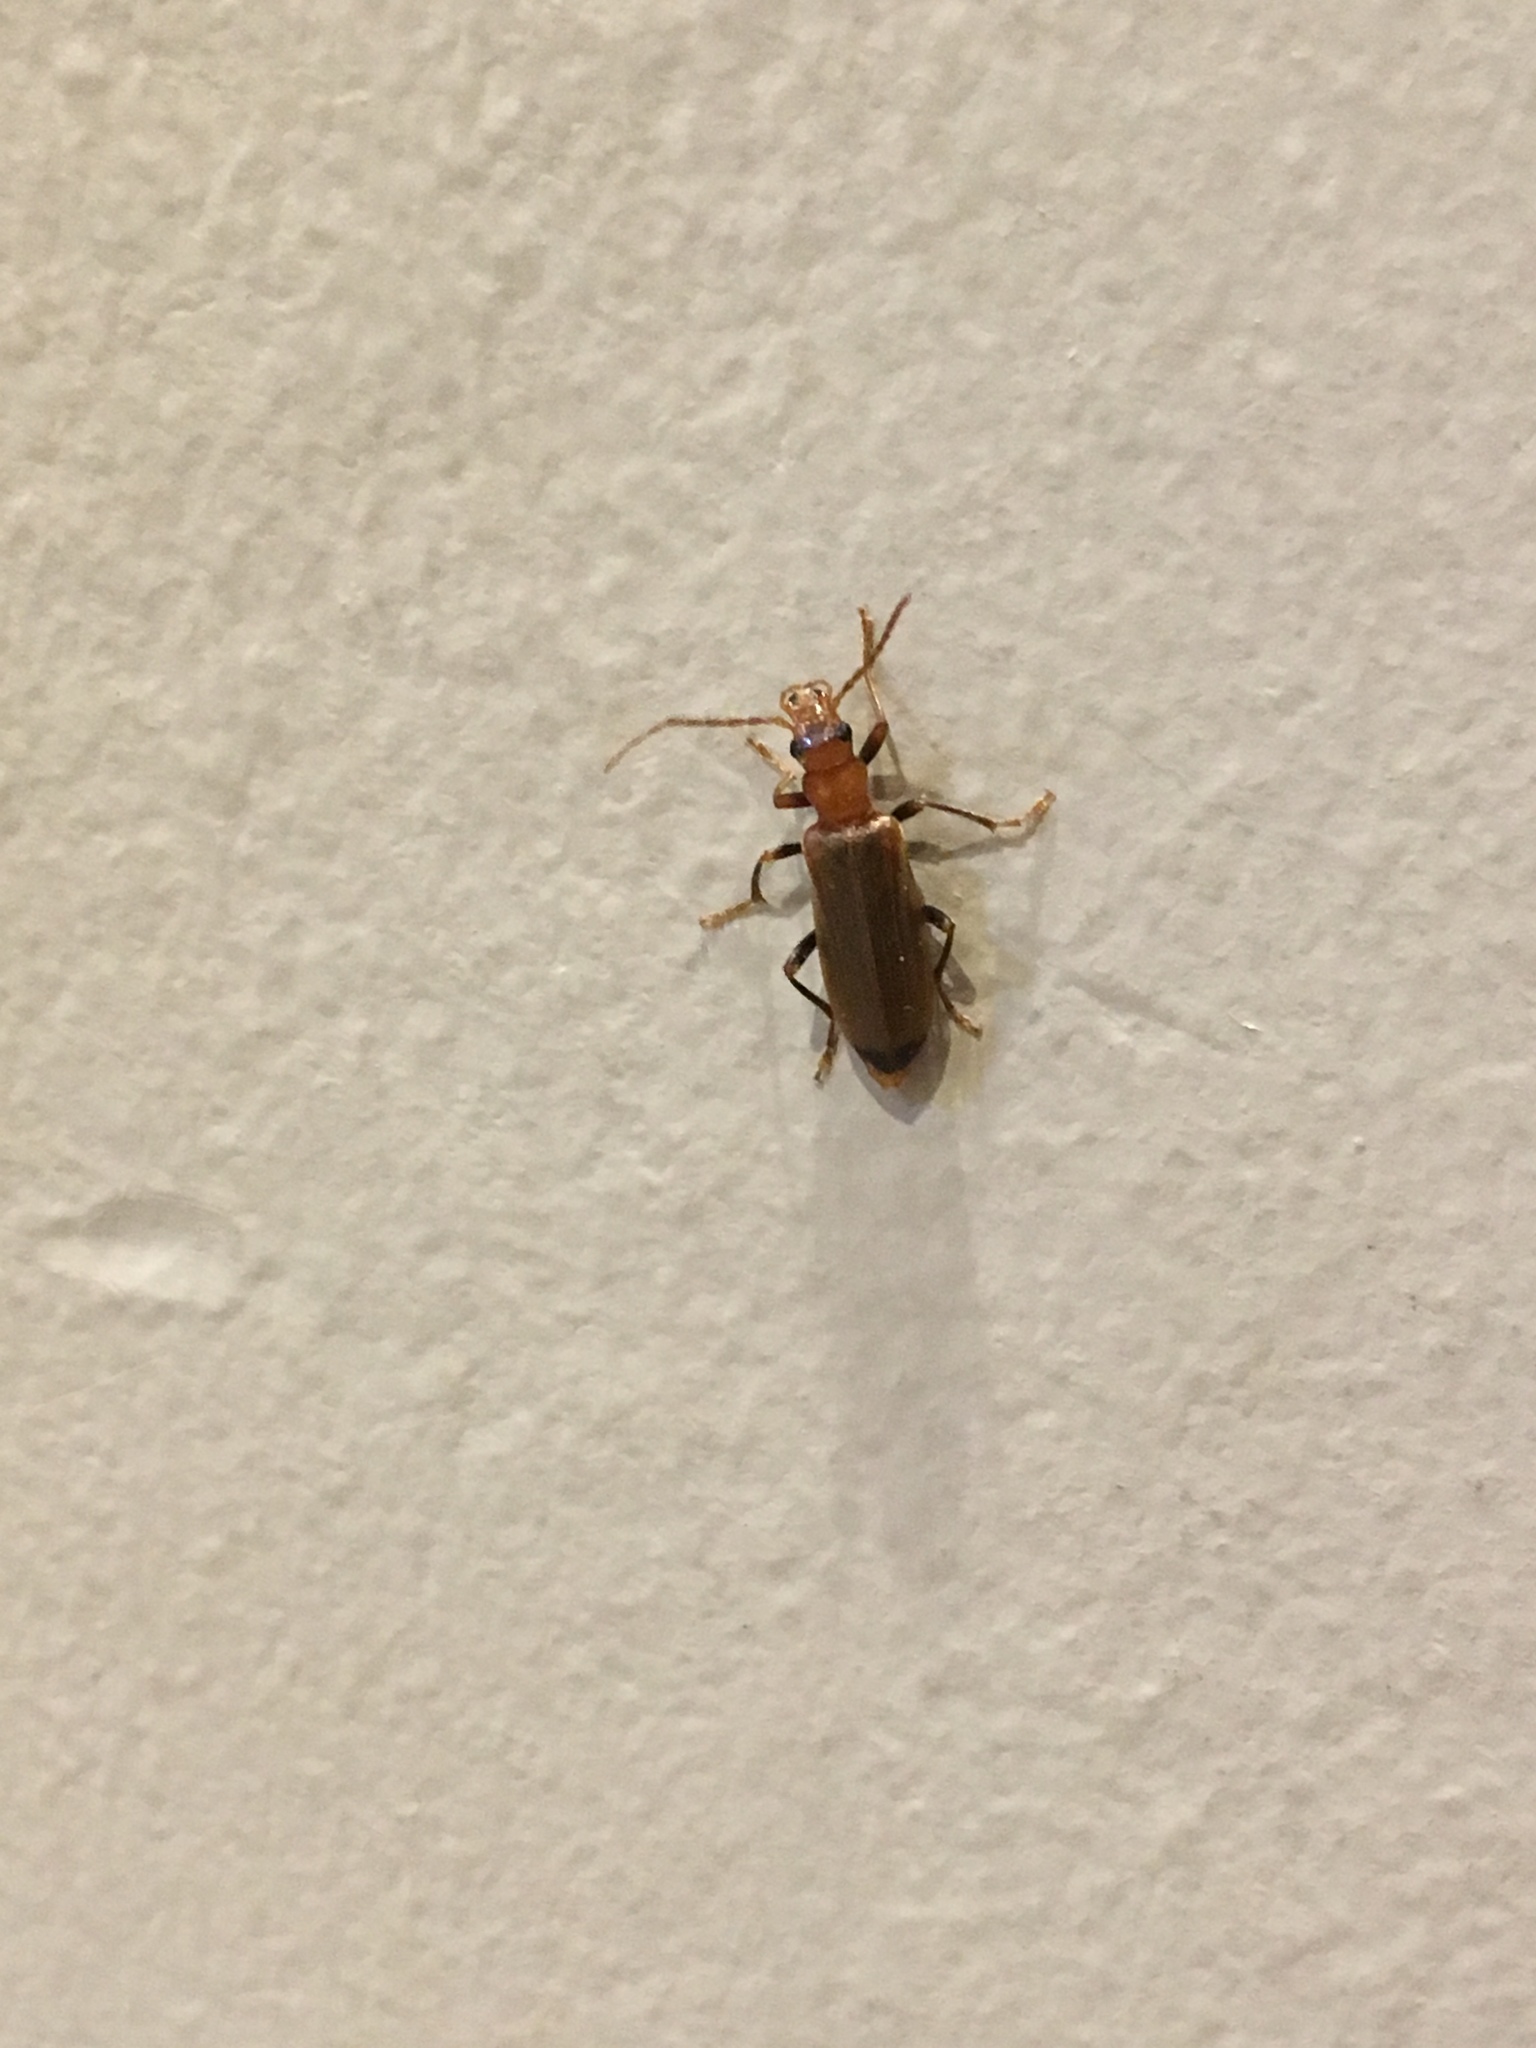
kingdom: Animalia
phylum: Arthropoda
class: Insecta
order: Coleoptera
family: Oedemeridae
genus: Nacerdes
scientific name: Nacerdes melanura
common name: Wharf borer
